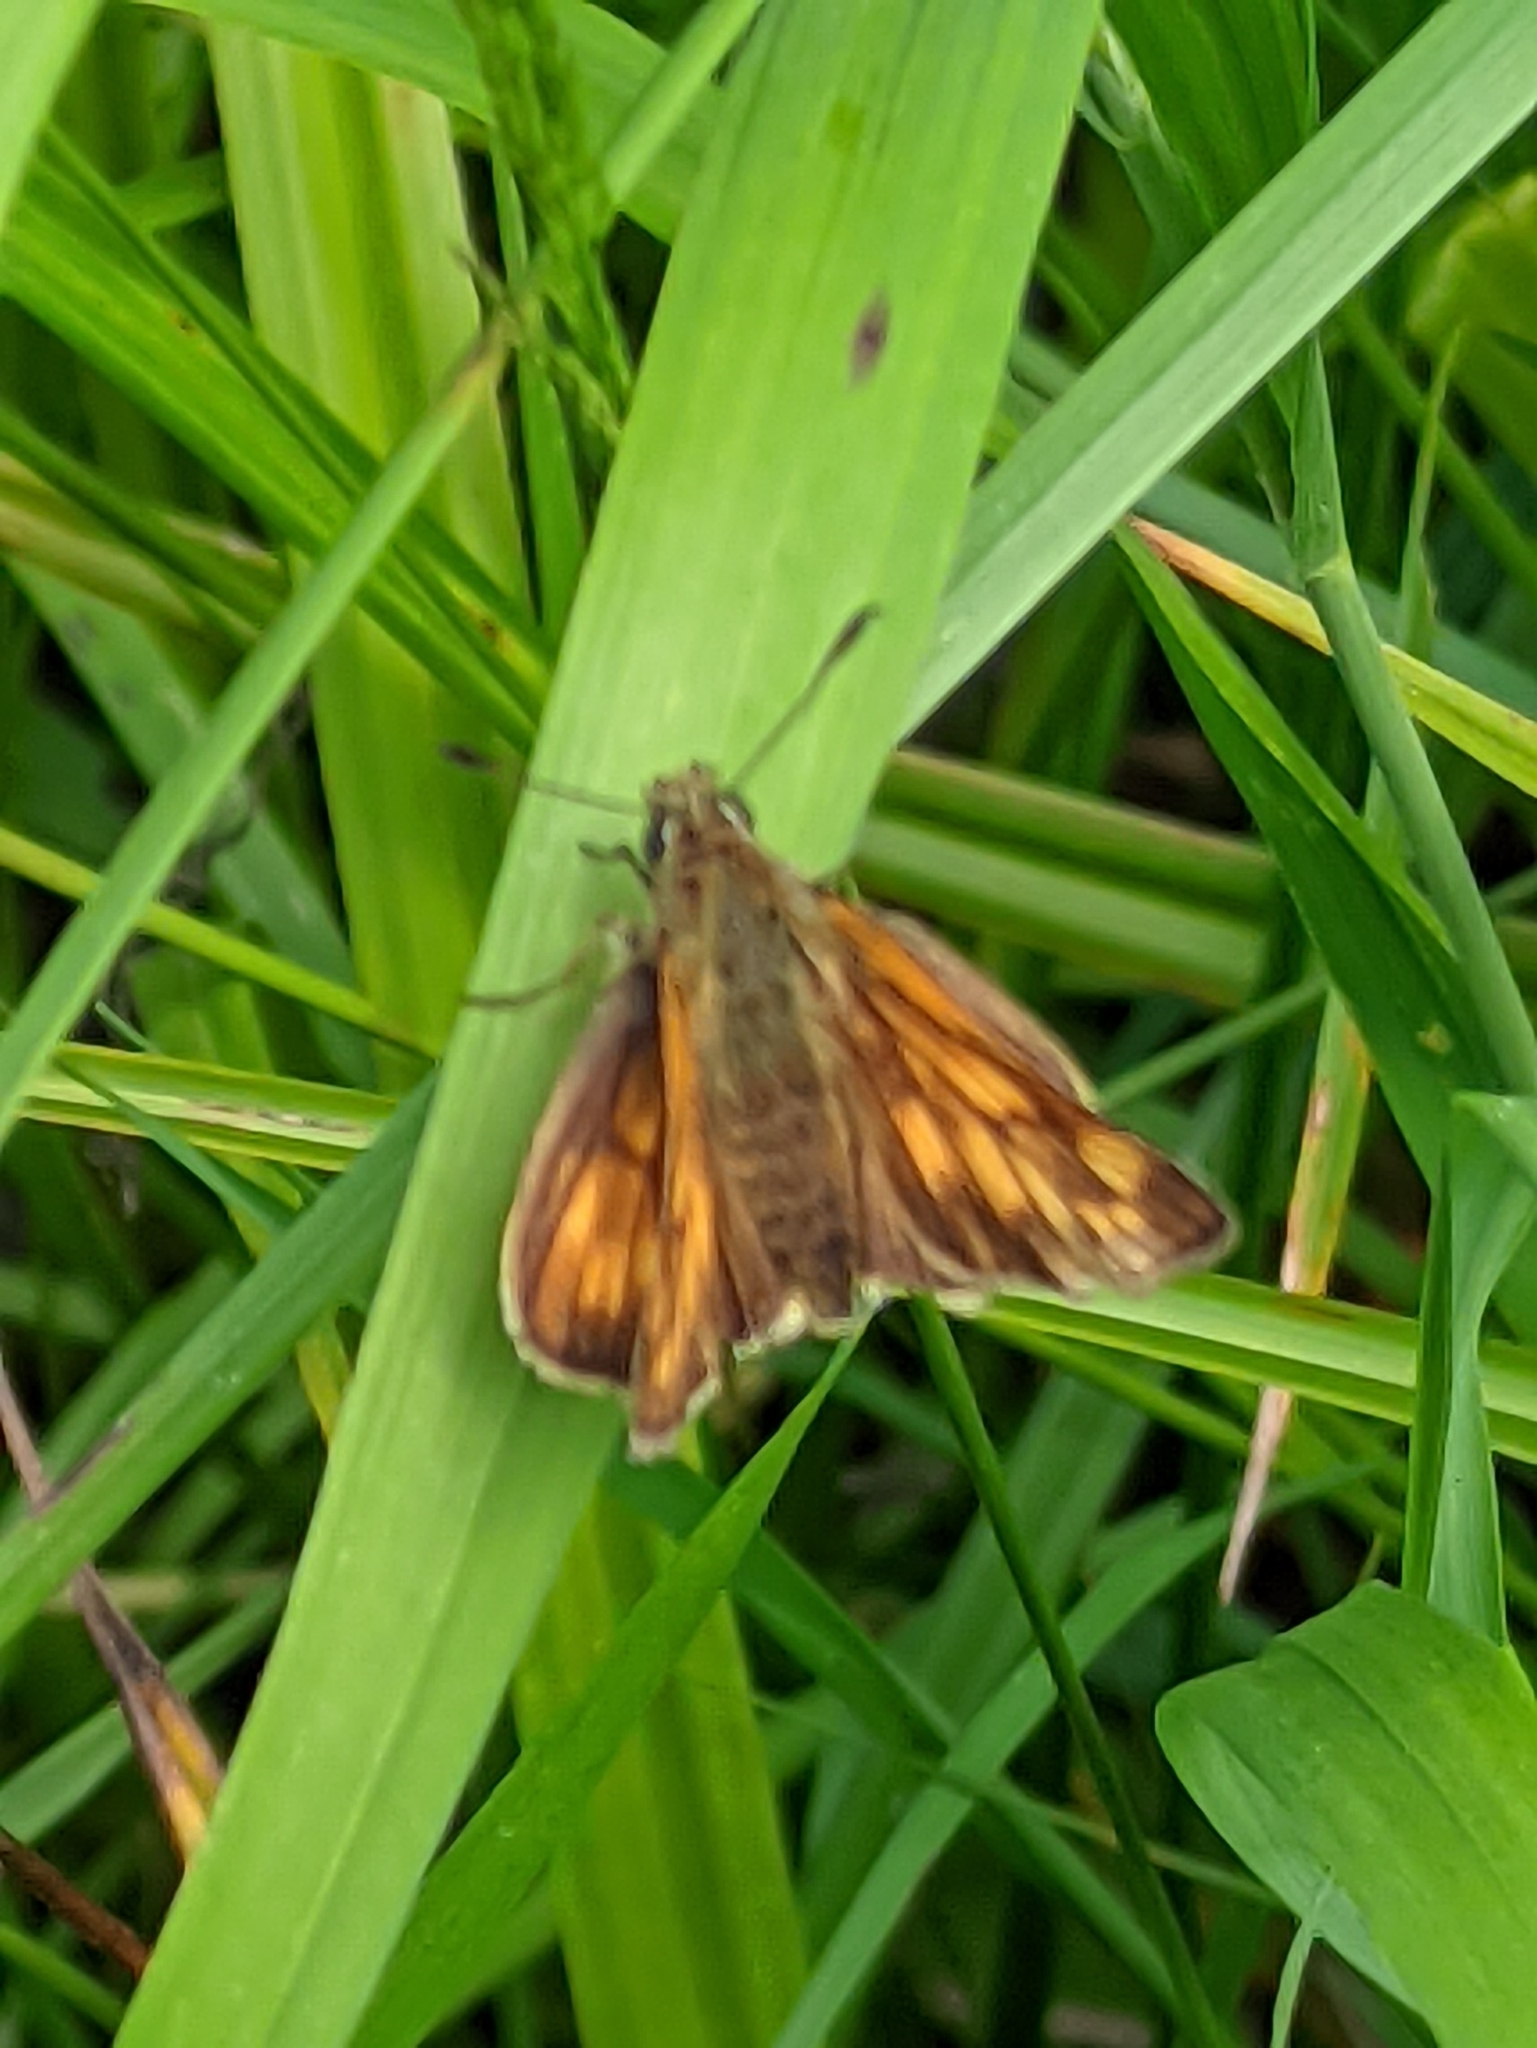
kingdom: Animalia
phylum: Arthropoda
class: Insecta
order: Lepidoptera
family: Hesperiidae
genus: Ochlodes
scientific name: Ochlodes venata
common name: Large skipper
